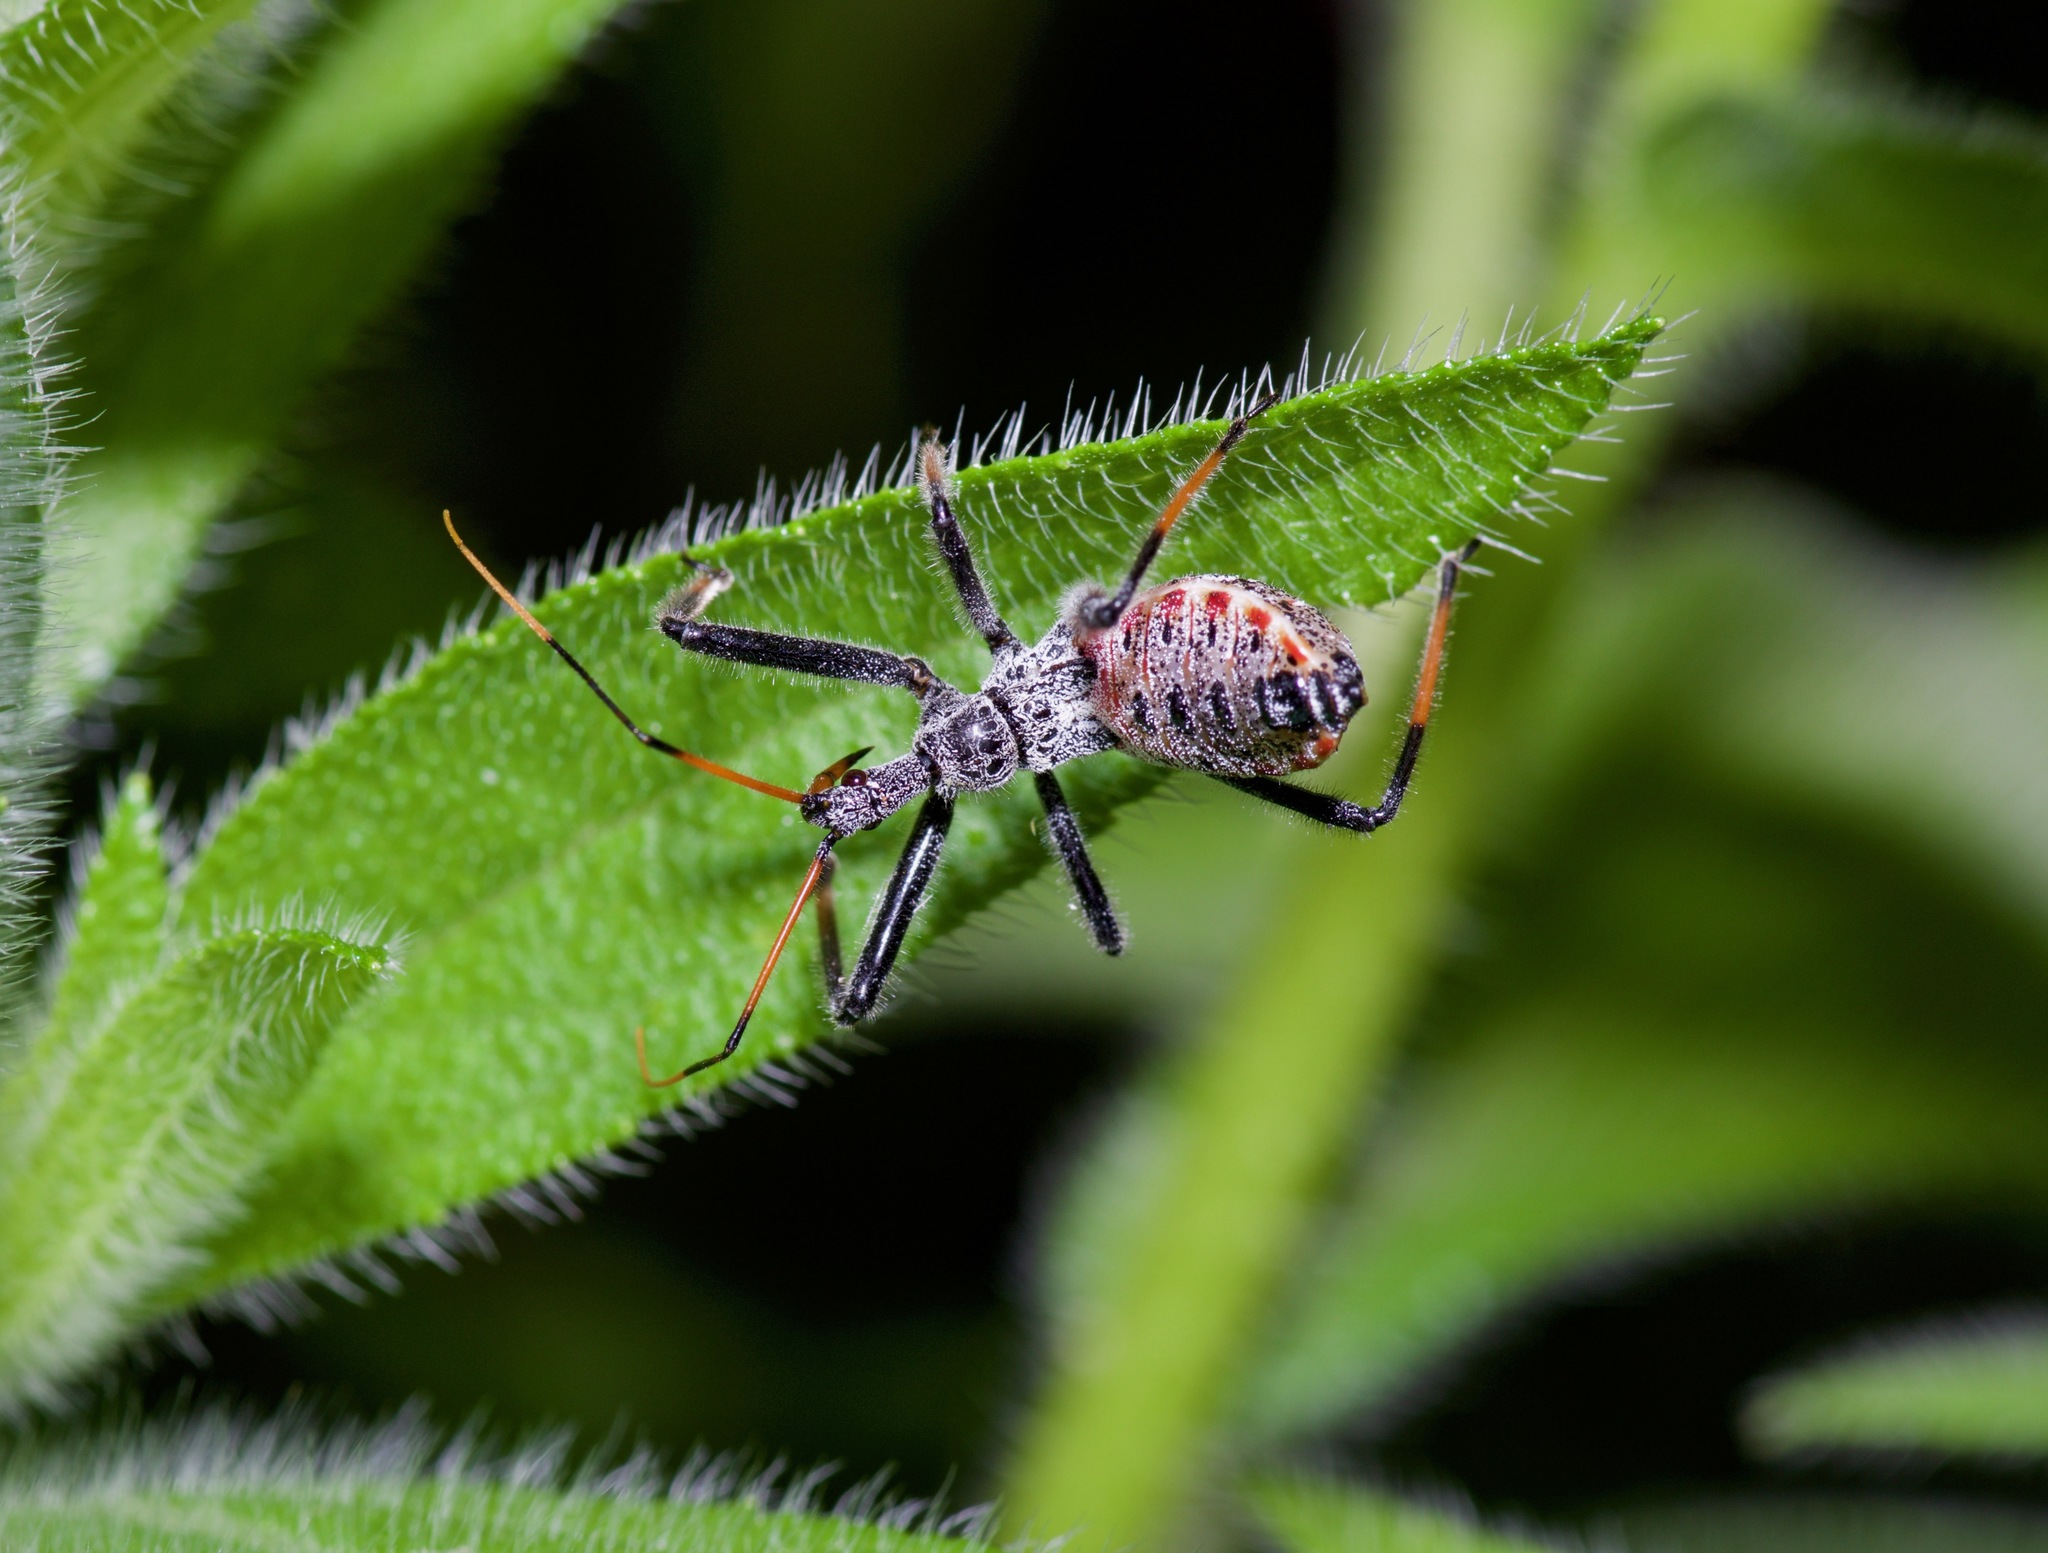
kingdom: Animalia
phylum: Arthropoda
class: Insecta
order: Hemiptera
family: Reduviidae
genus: Arilus
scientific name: Arilus cristatus
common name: North american wheel bug
